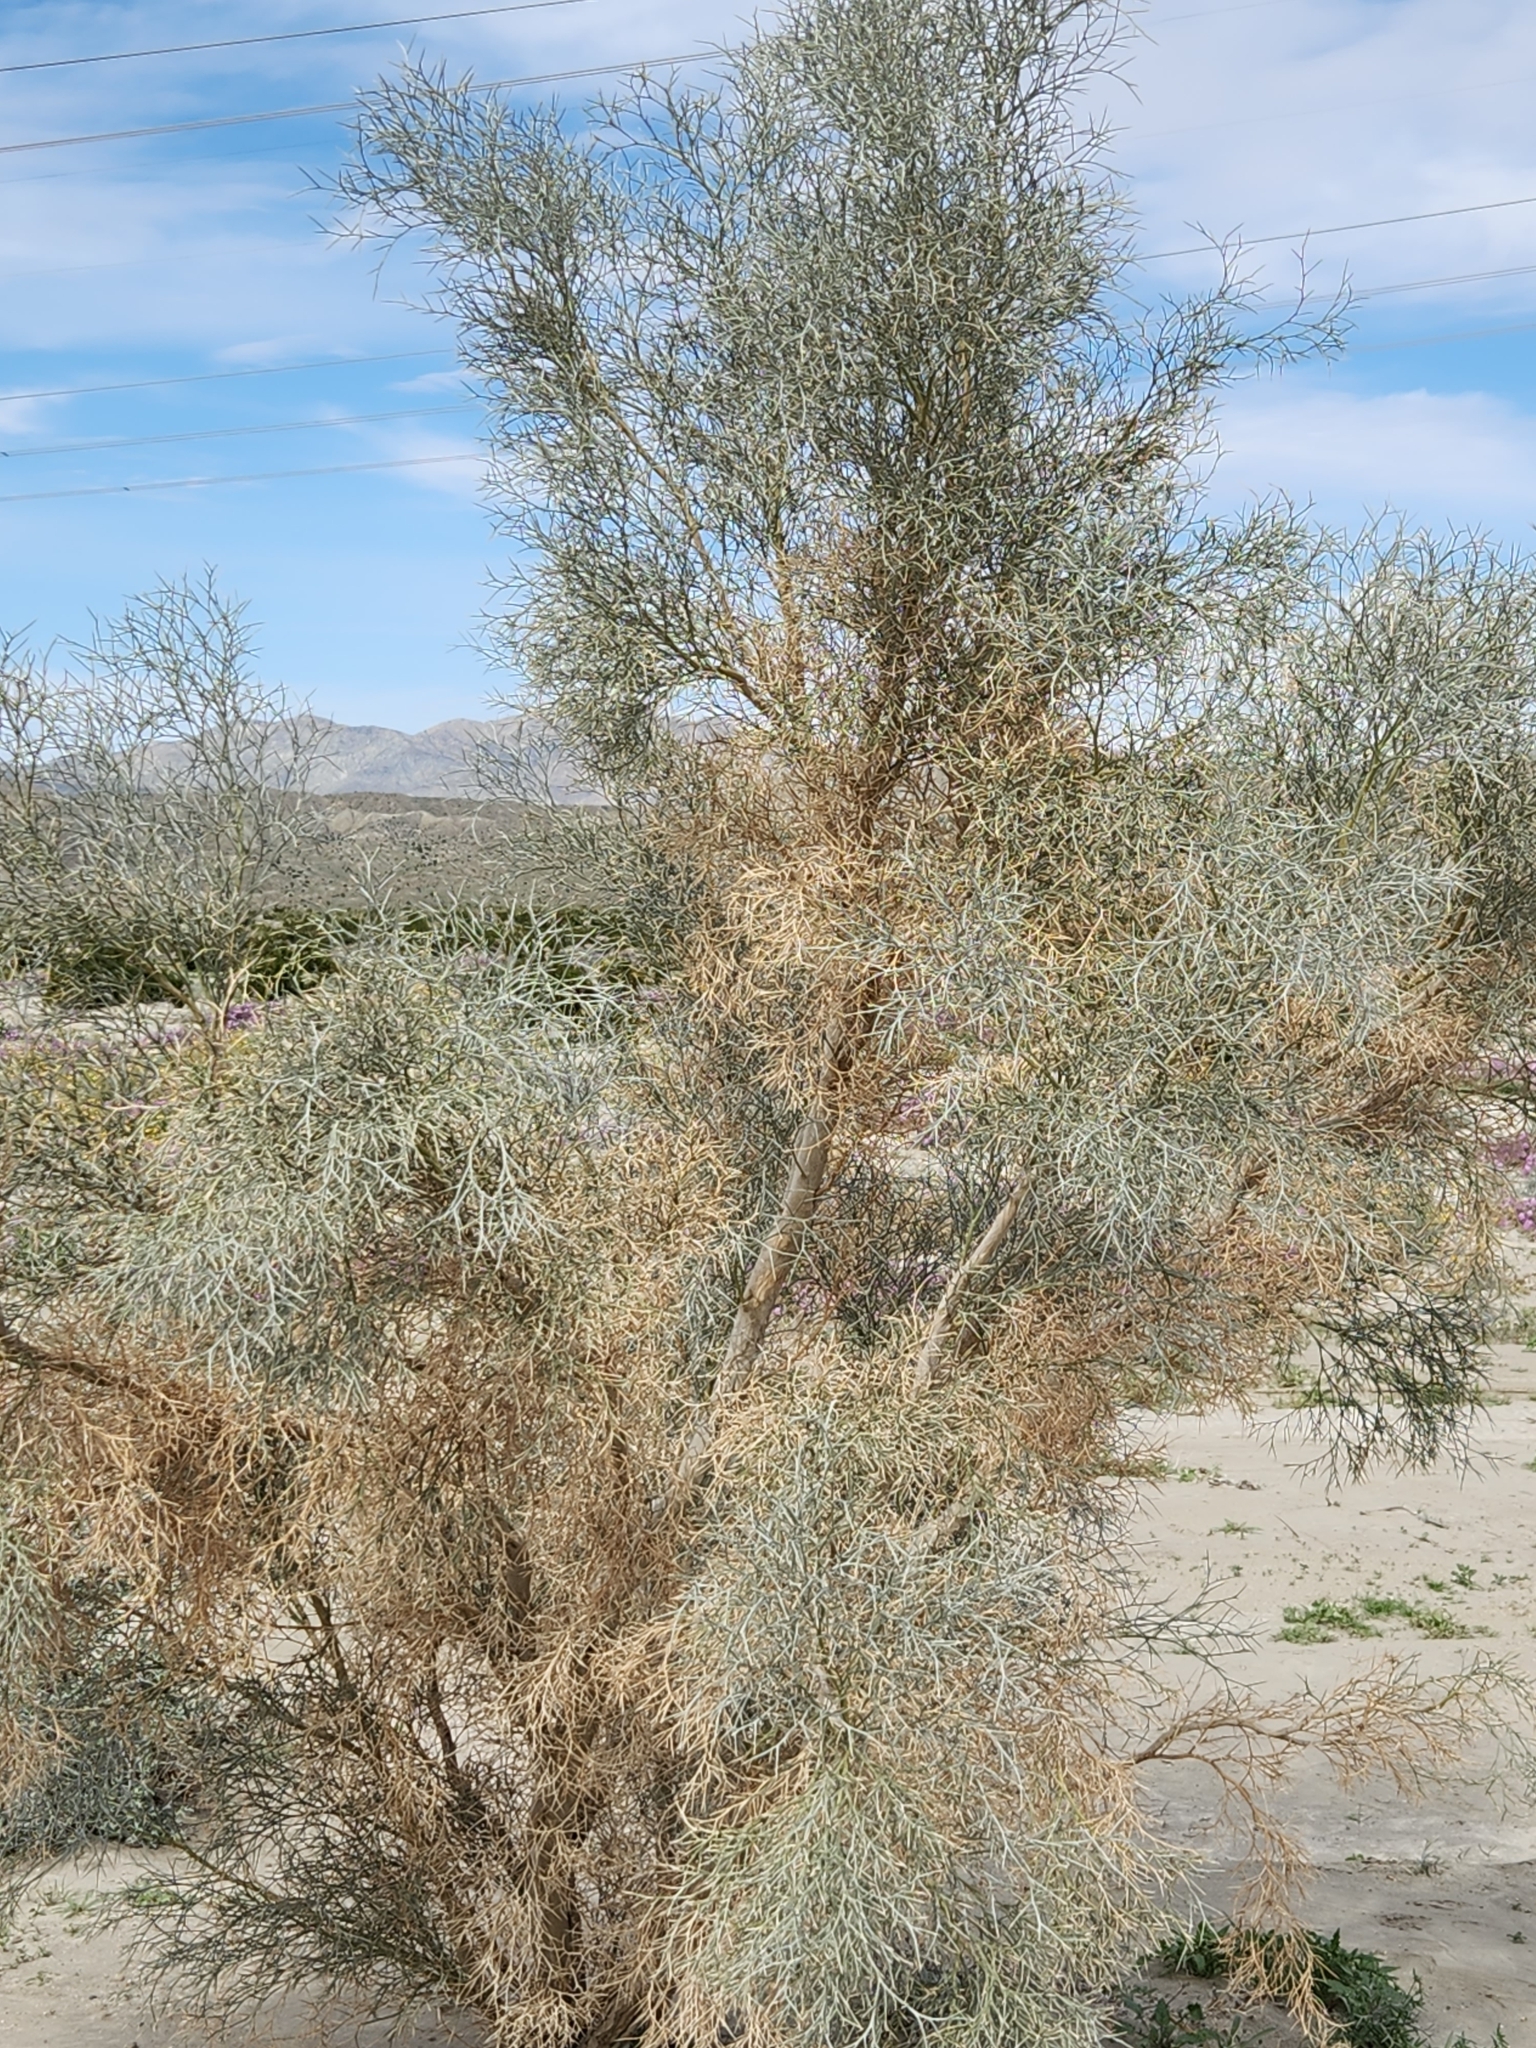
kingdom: Plantae
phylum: Tracheophyta
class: Magnoliopsida
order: Fabales
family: Fabaceae
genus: Psorothamnus
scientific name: Psorothamnus spinosus
